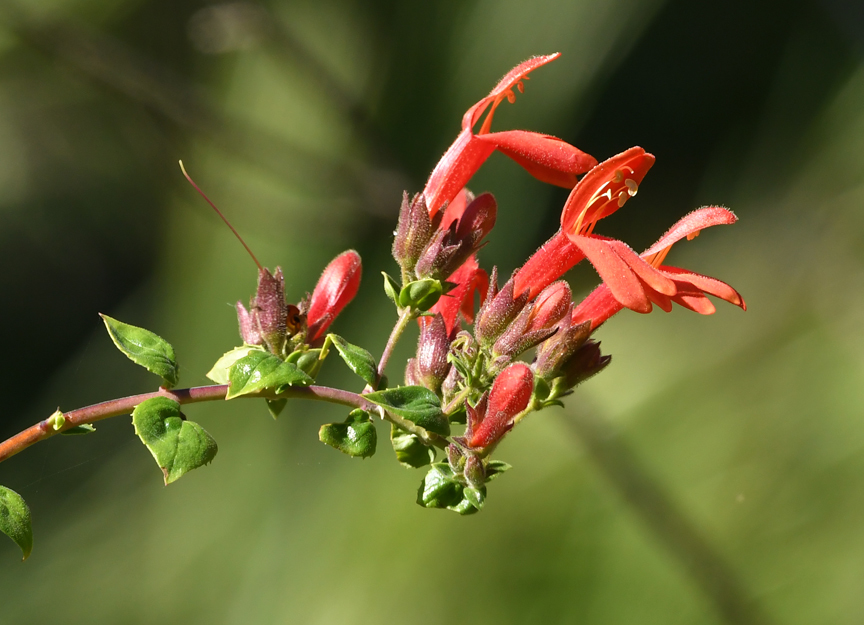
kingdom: Plantae
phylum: Tracheophyta
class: Magnoliopsida
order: Lamiales
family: Plantaginaceae
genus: Keckiella
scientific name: Keckiella cordifolia
